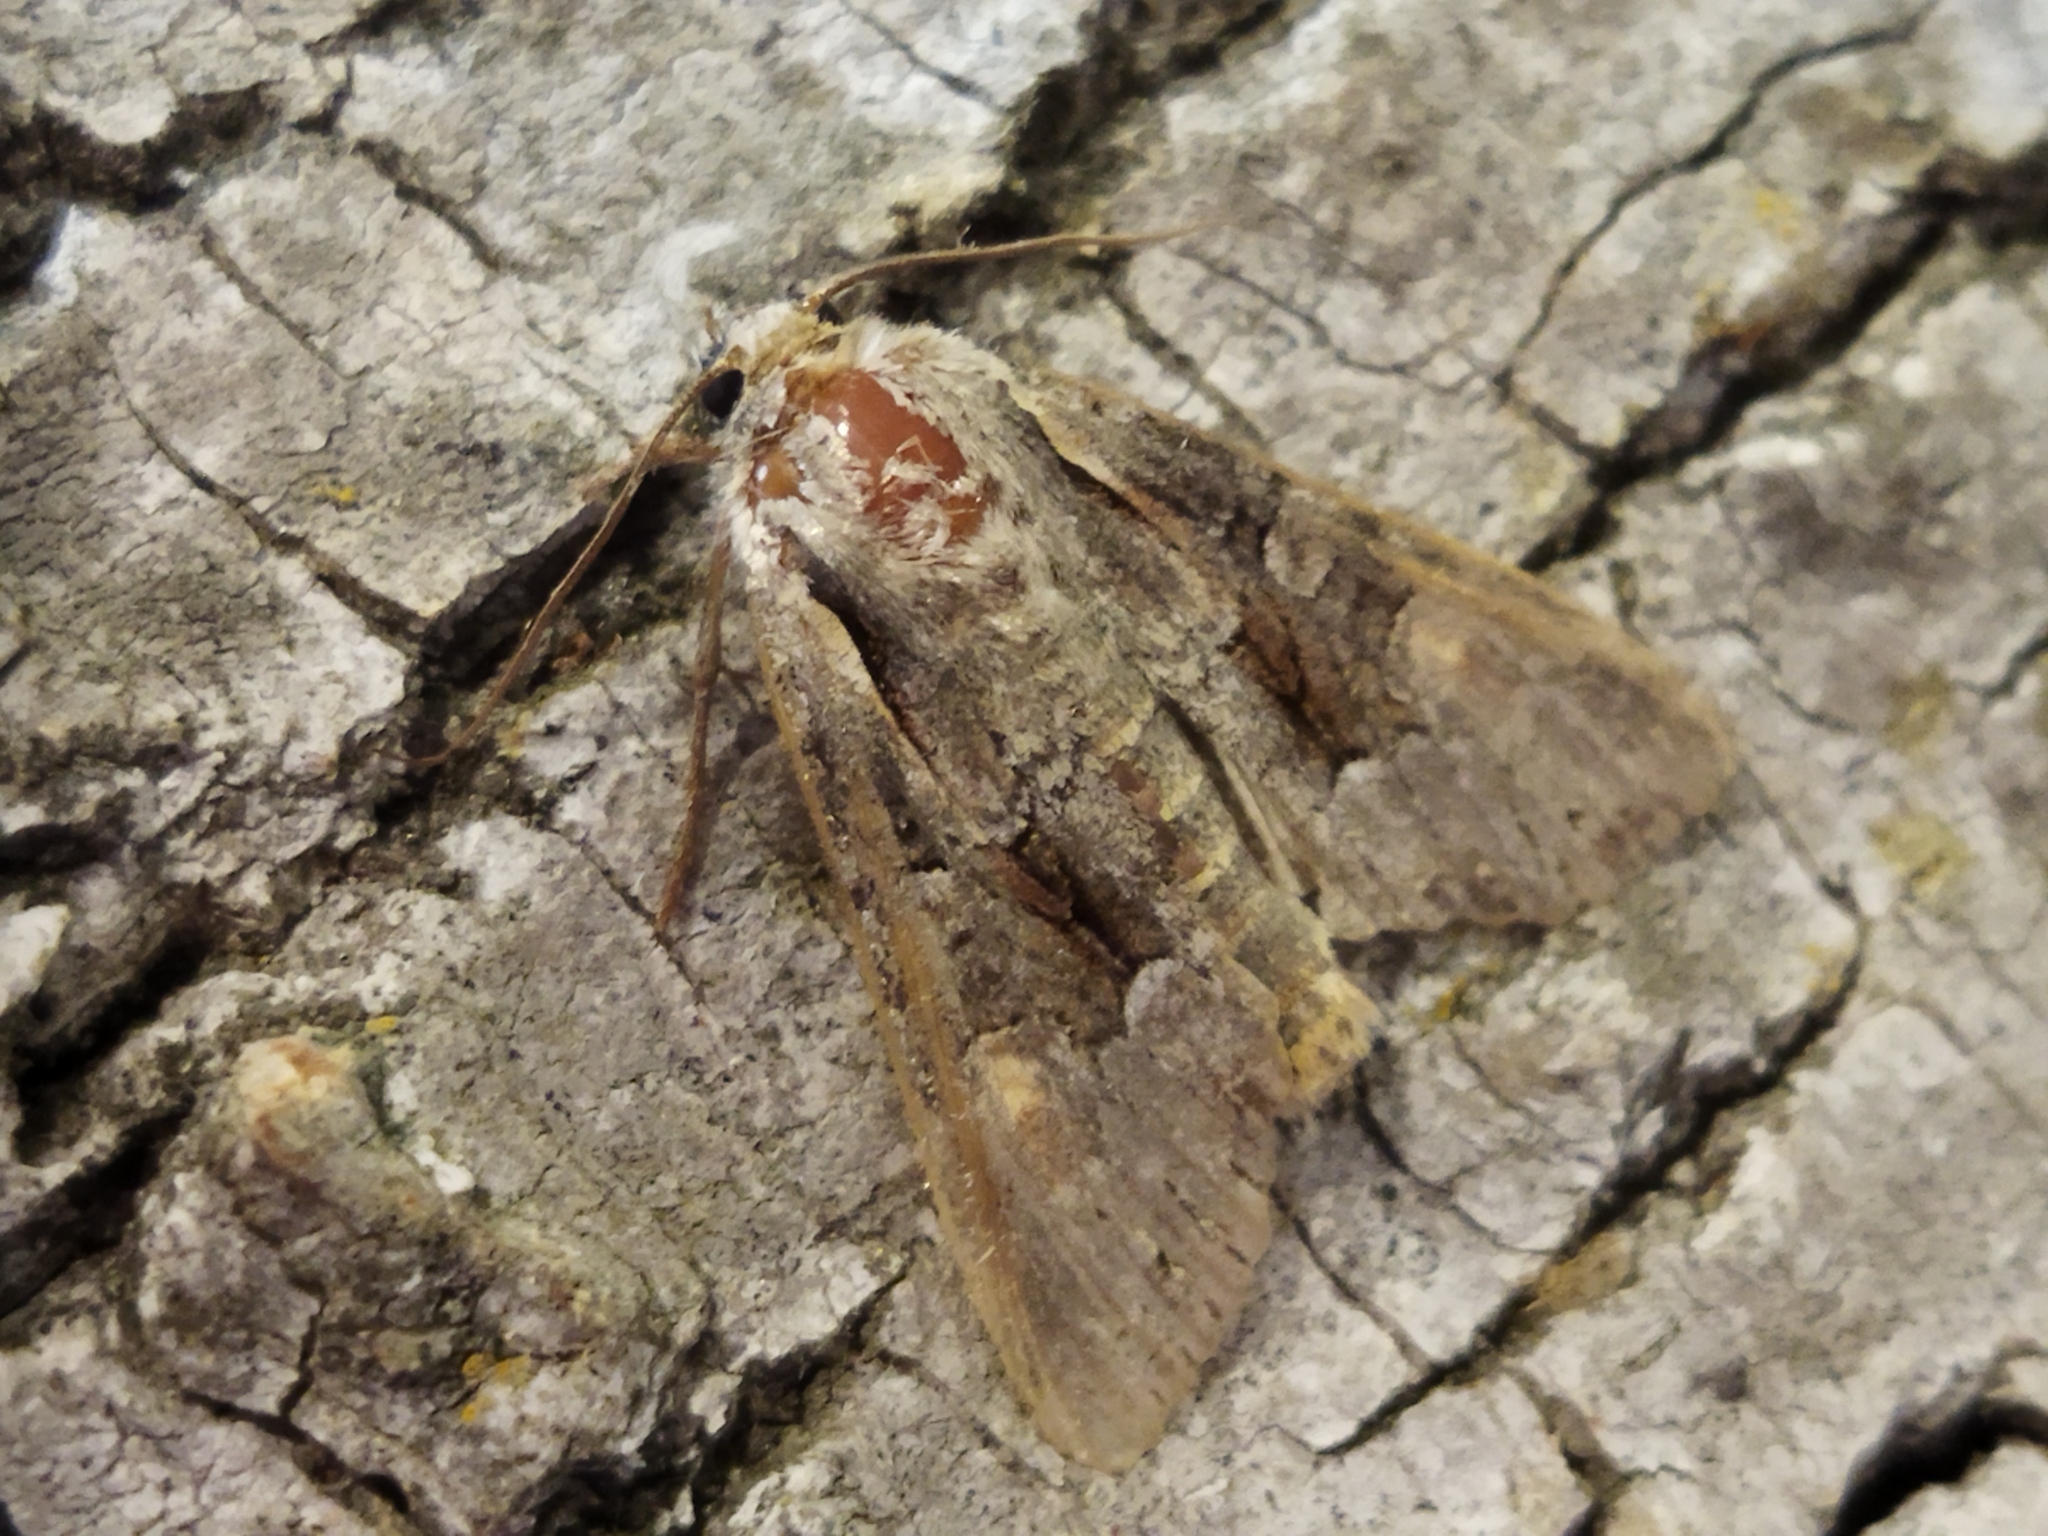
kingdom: Animalia
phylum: Arthropoda
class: Insecta
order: Lepidoptera
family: Noctuidae
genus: Lacanobia
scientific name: Lacanobia w-latinum
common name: Light brocade
